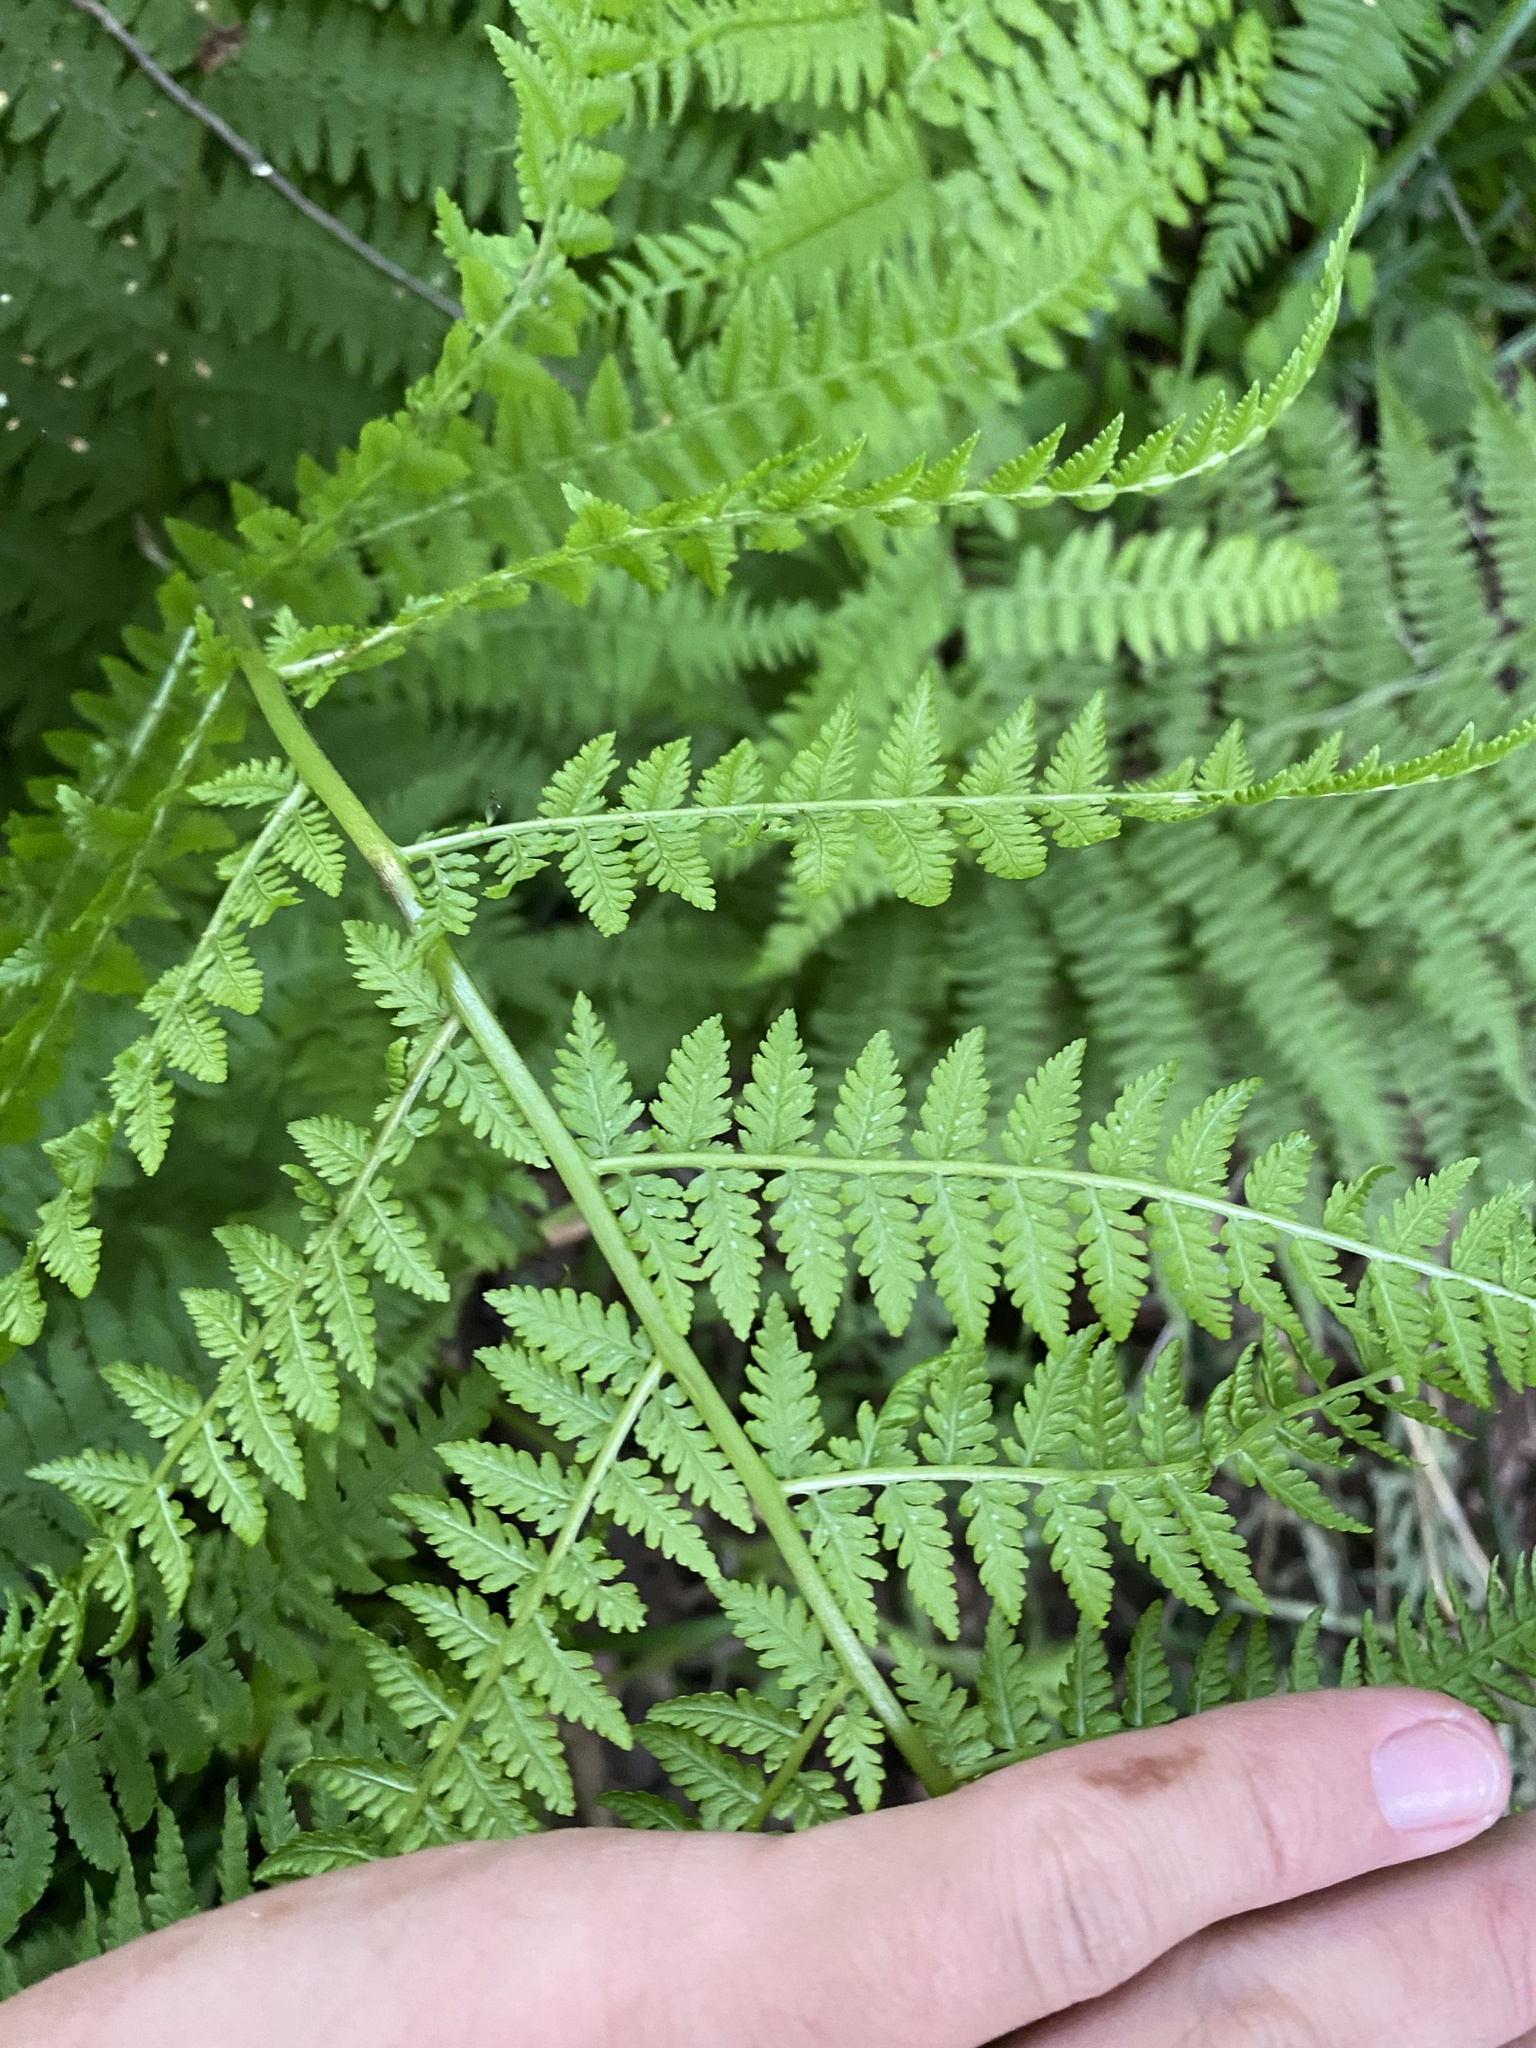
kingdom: Plantae
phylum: Tracheophyta
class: Polypodiopsida
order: Polypodiales
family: Athyriaceae
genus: Athyrium
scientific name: Athyrium filix-femina
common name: Lady fern
